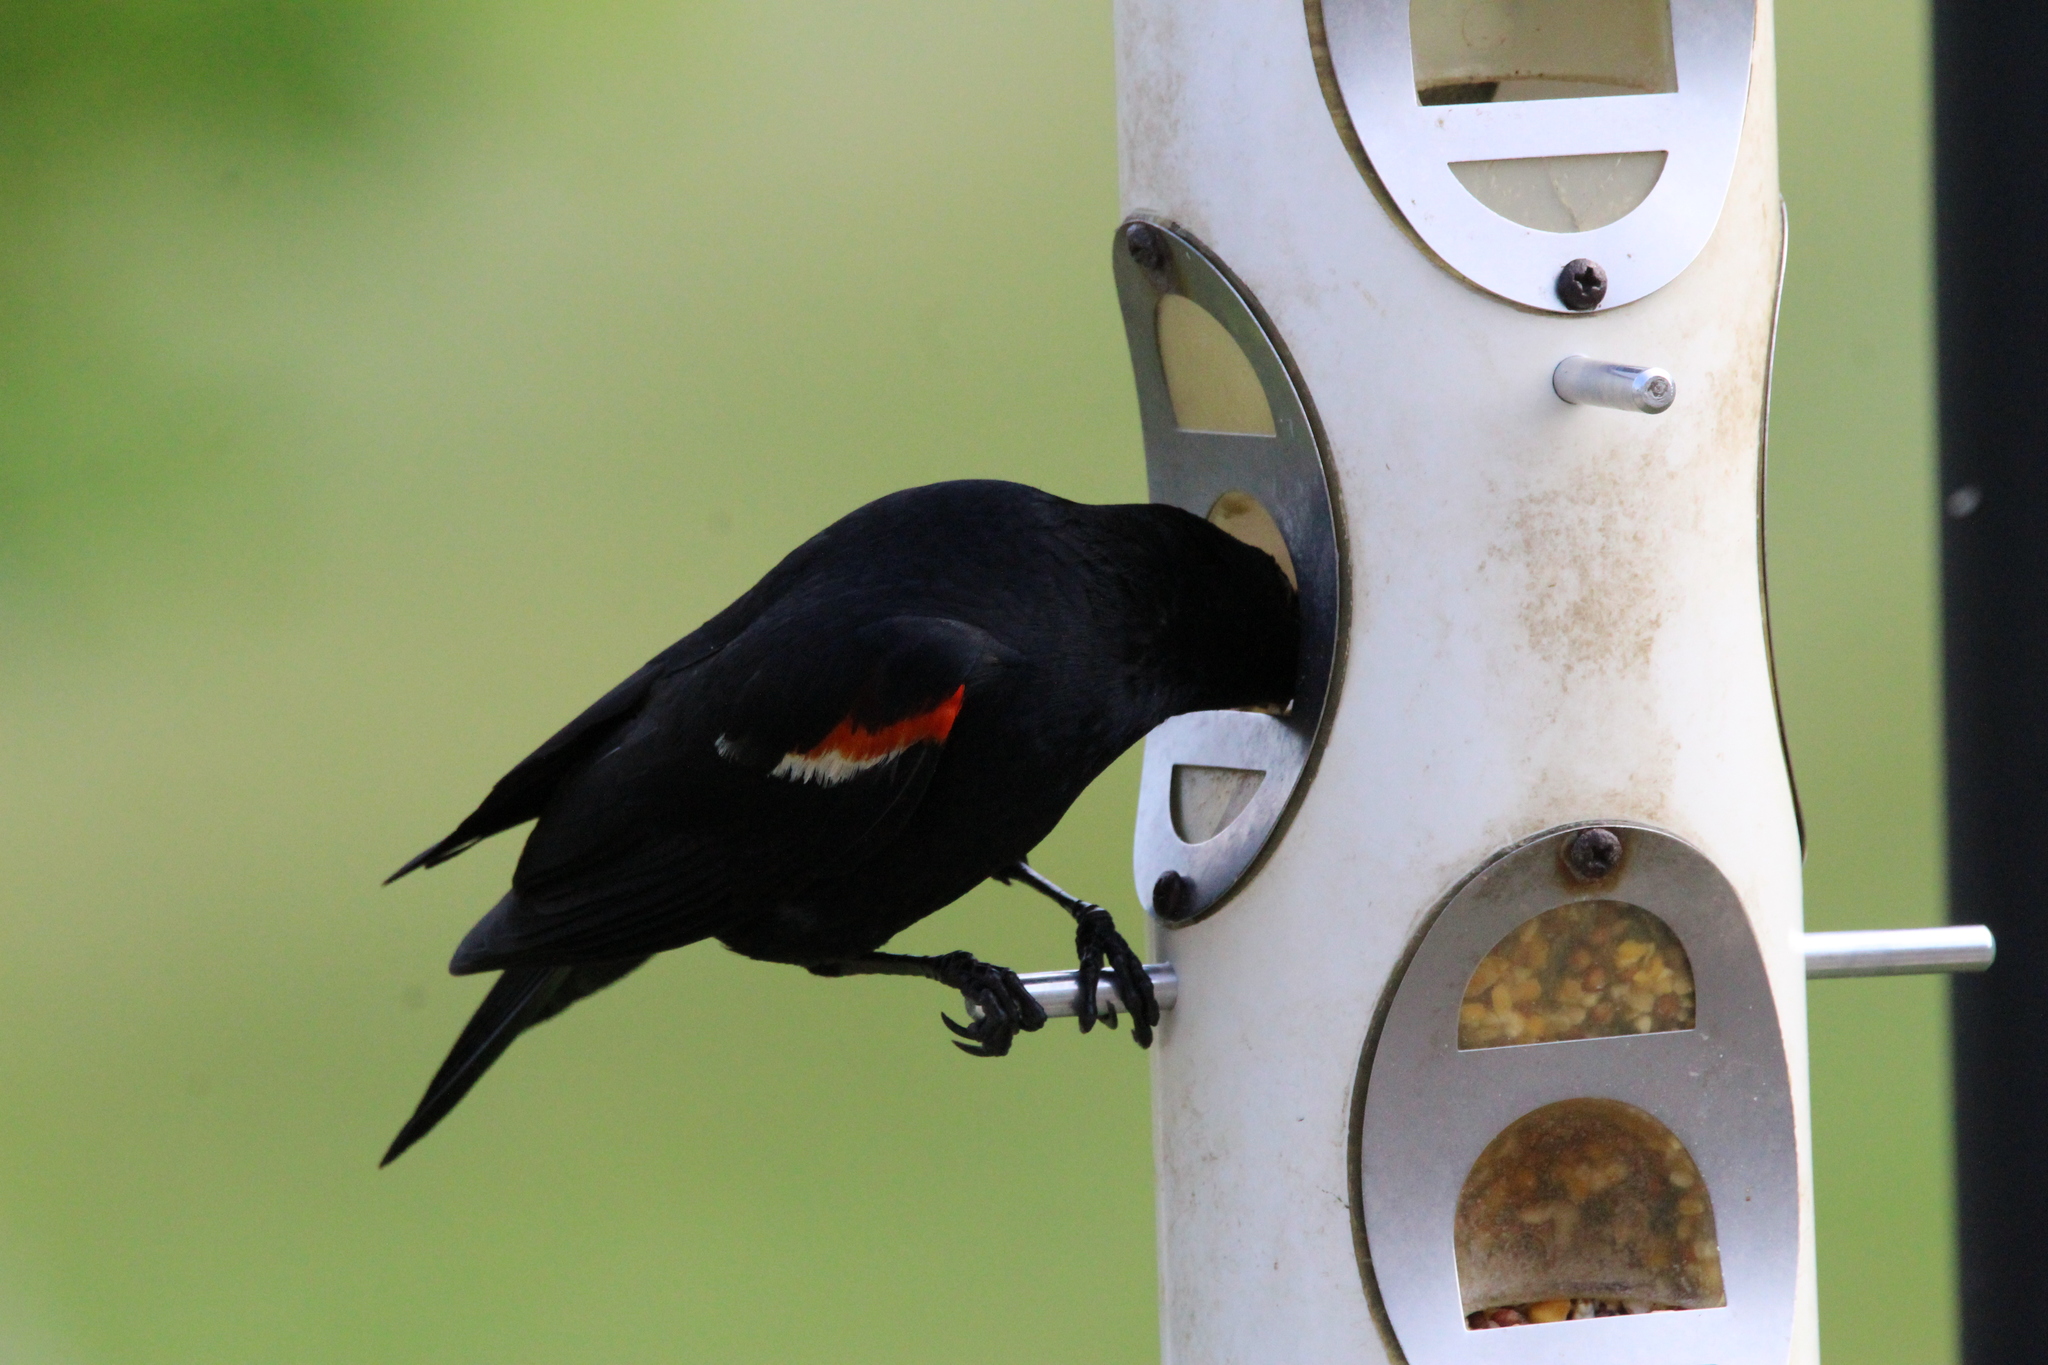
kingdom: Animalia
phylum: Chordata
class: Aves
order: Passeriformes
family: Icteridae
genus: Agelaius
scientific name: Agelaius phoeniceus
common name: Red-winged blackbird
